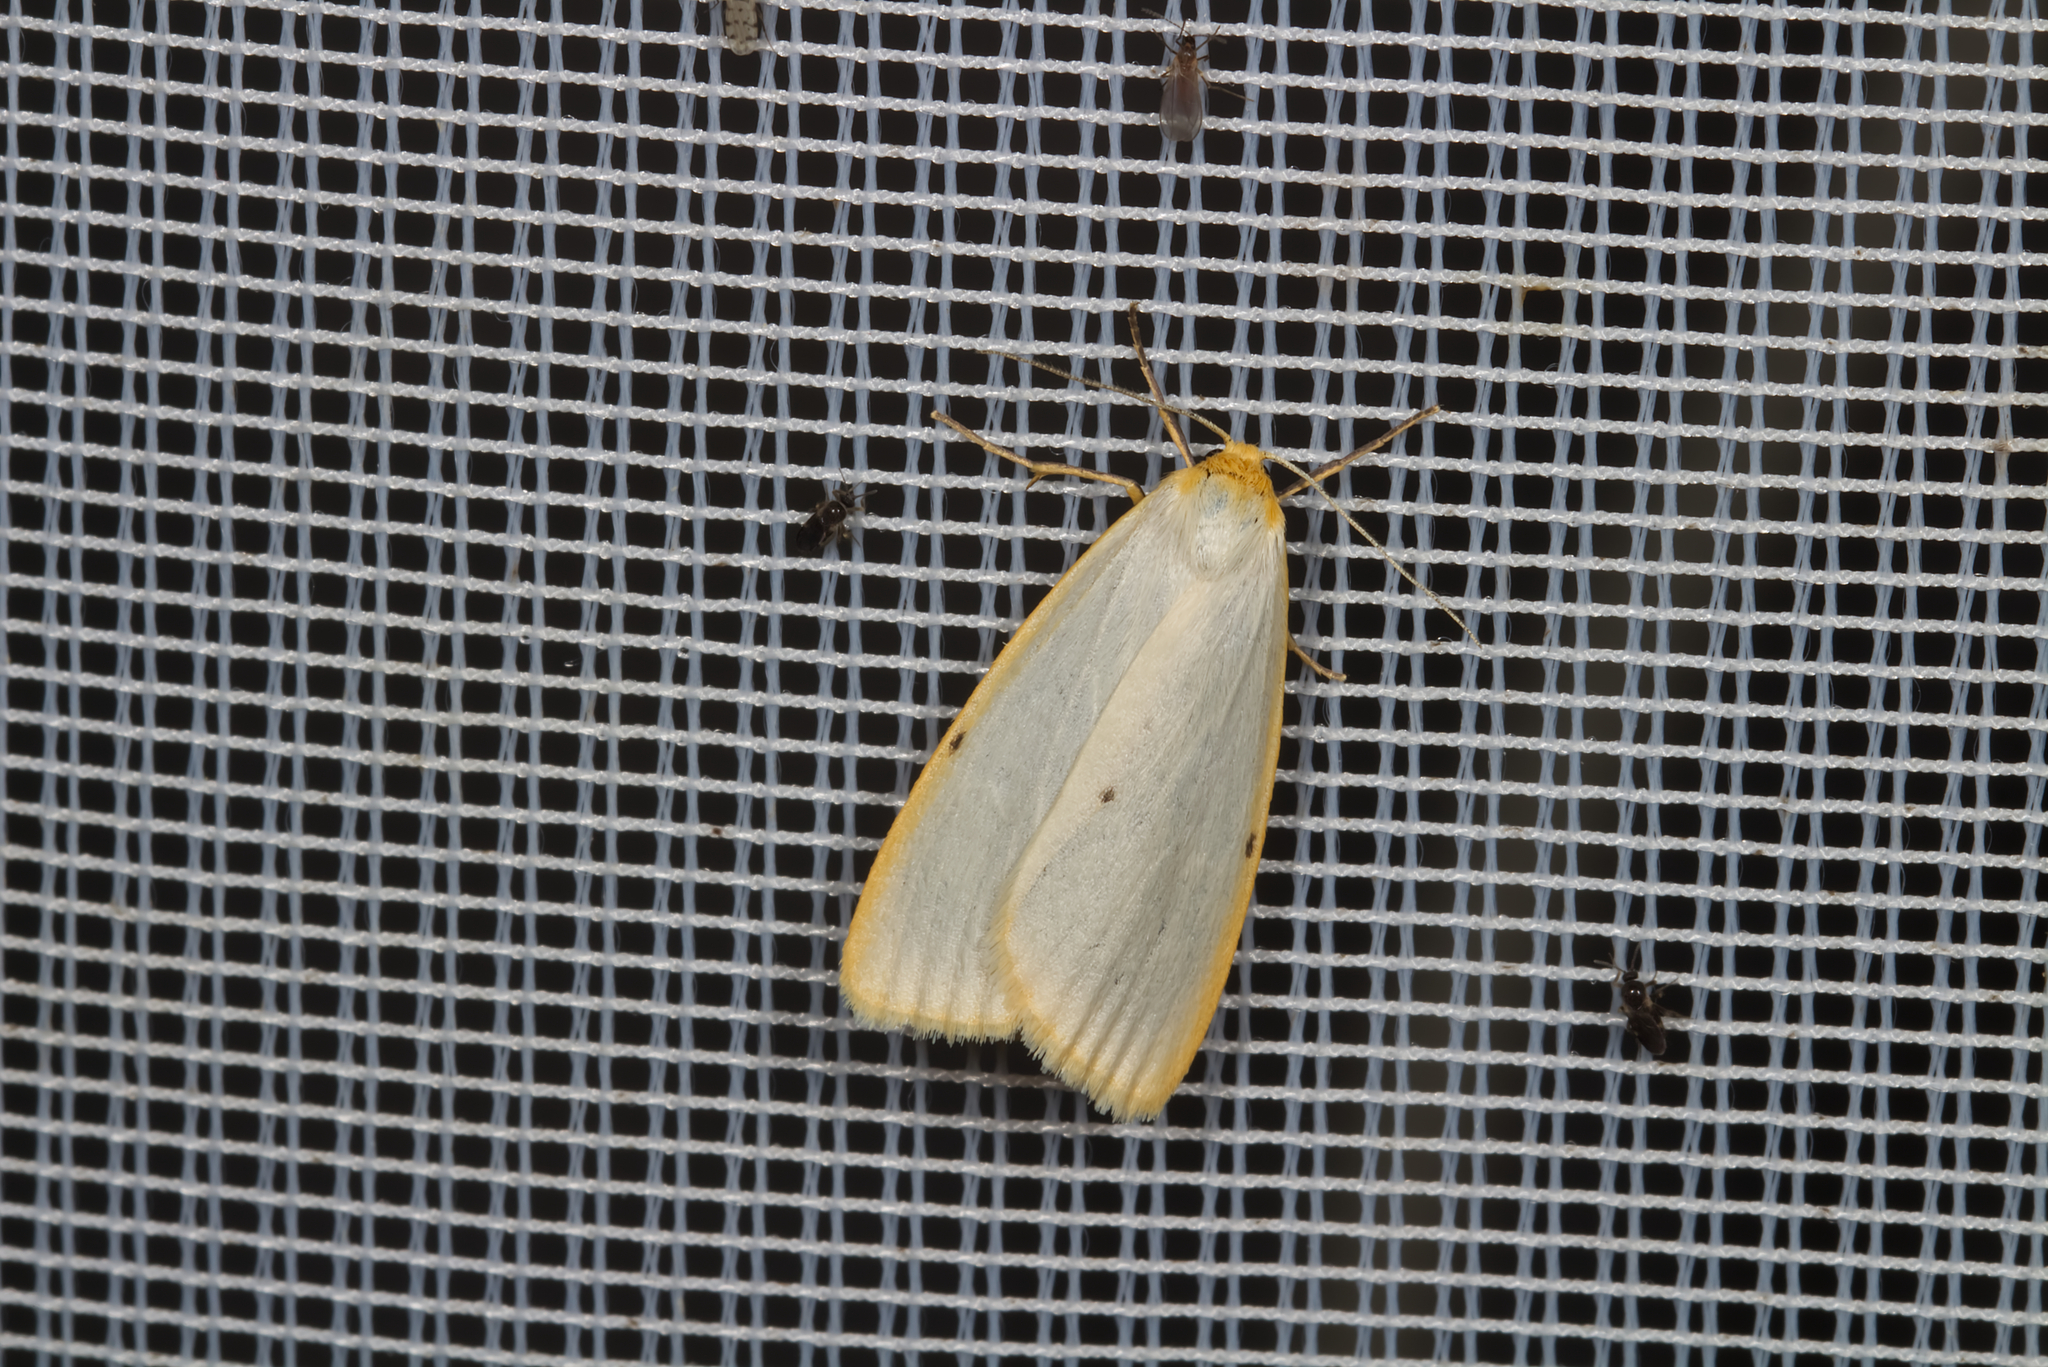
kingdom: Animalia
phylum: Arthropoda
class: Insecta
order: Lepidoptera
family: Erebidae
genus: Cybosia
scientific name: Cybosia mesomella
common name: Four-dotted footman
